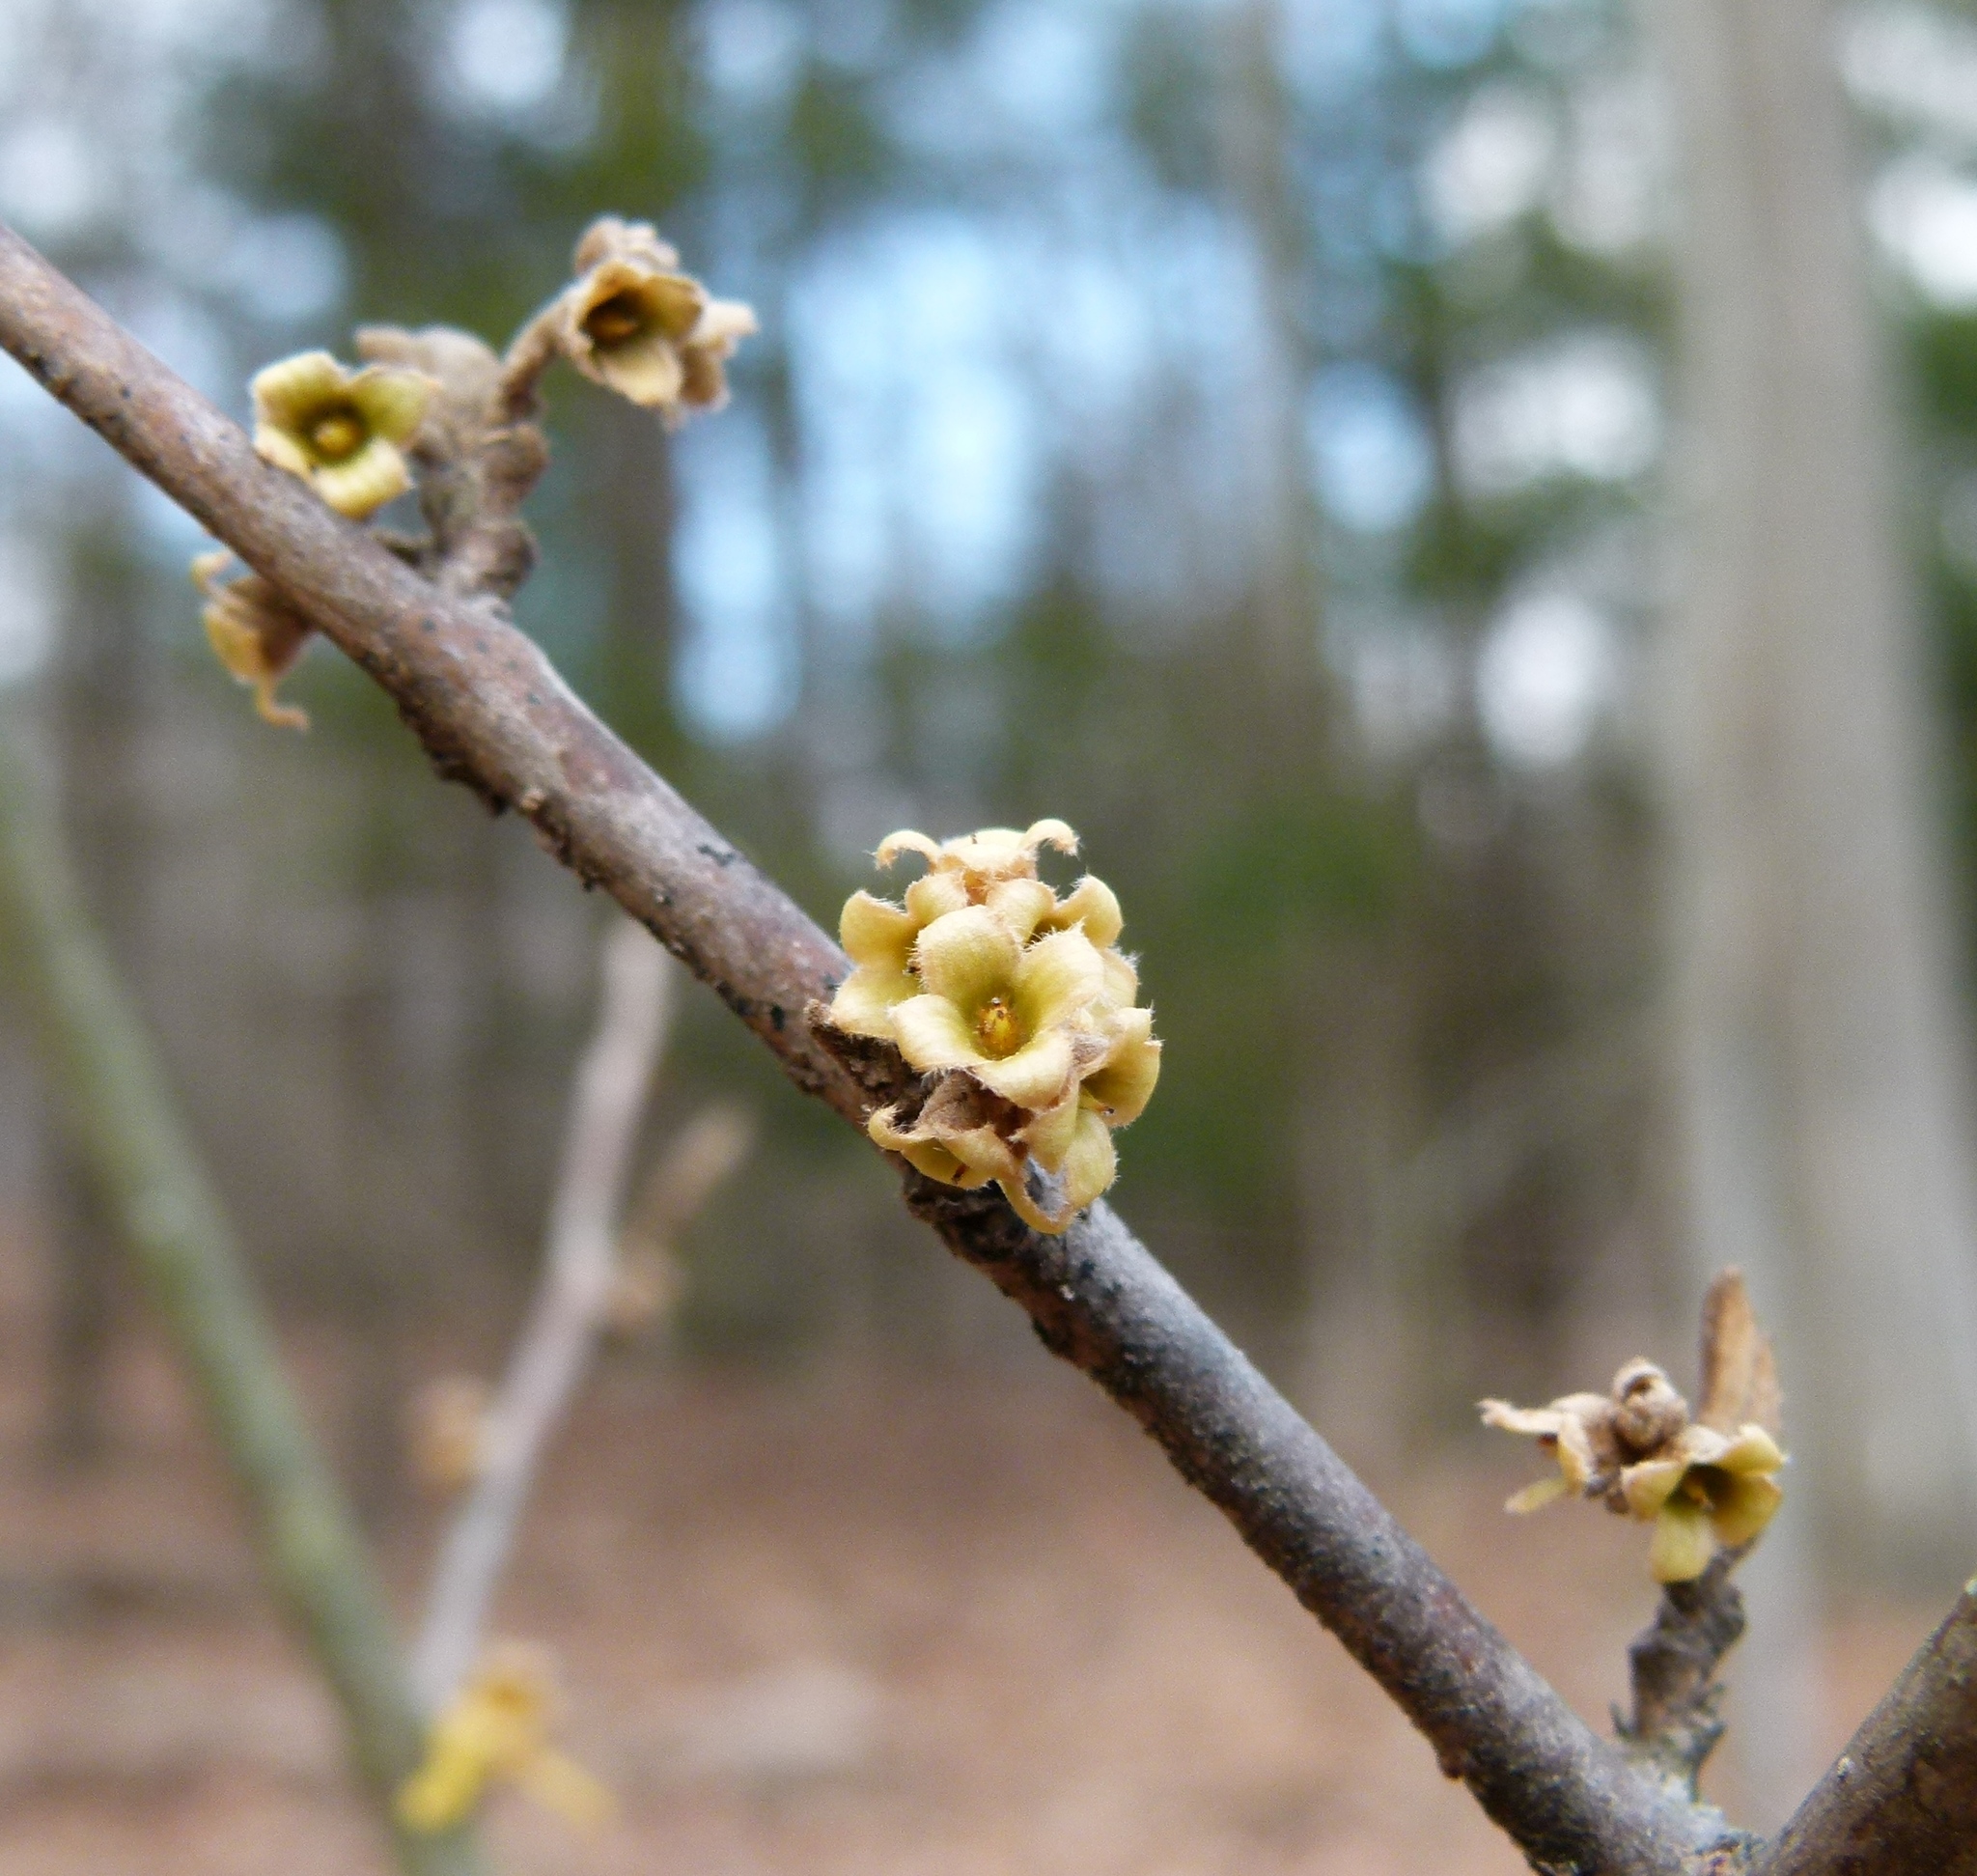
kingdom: Plantae
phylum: Tracheophyta
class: Magnoliopsida
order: Saxifragales
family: Hamamelidaceae
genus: Hamamelis
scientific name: Hamamelis virginiana
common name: Witch-hazel
